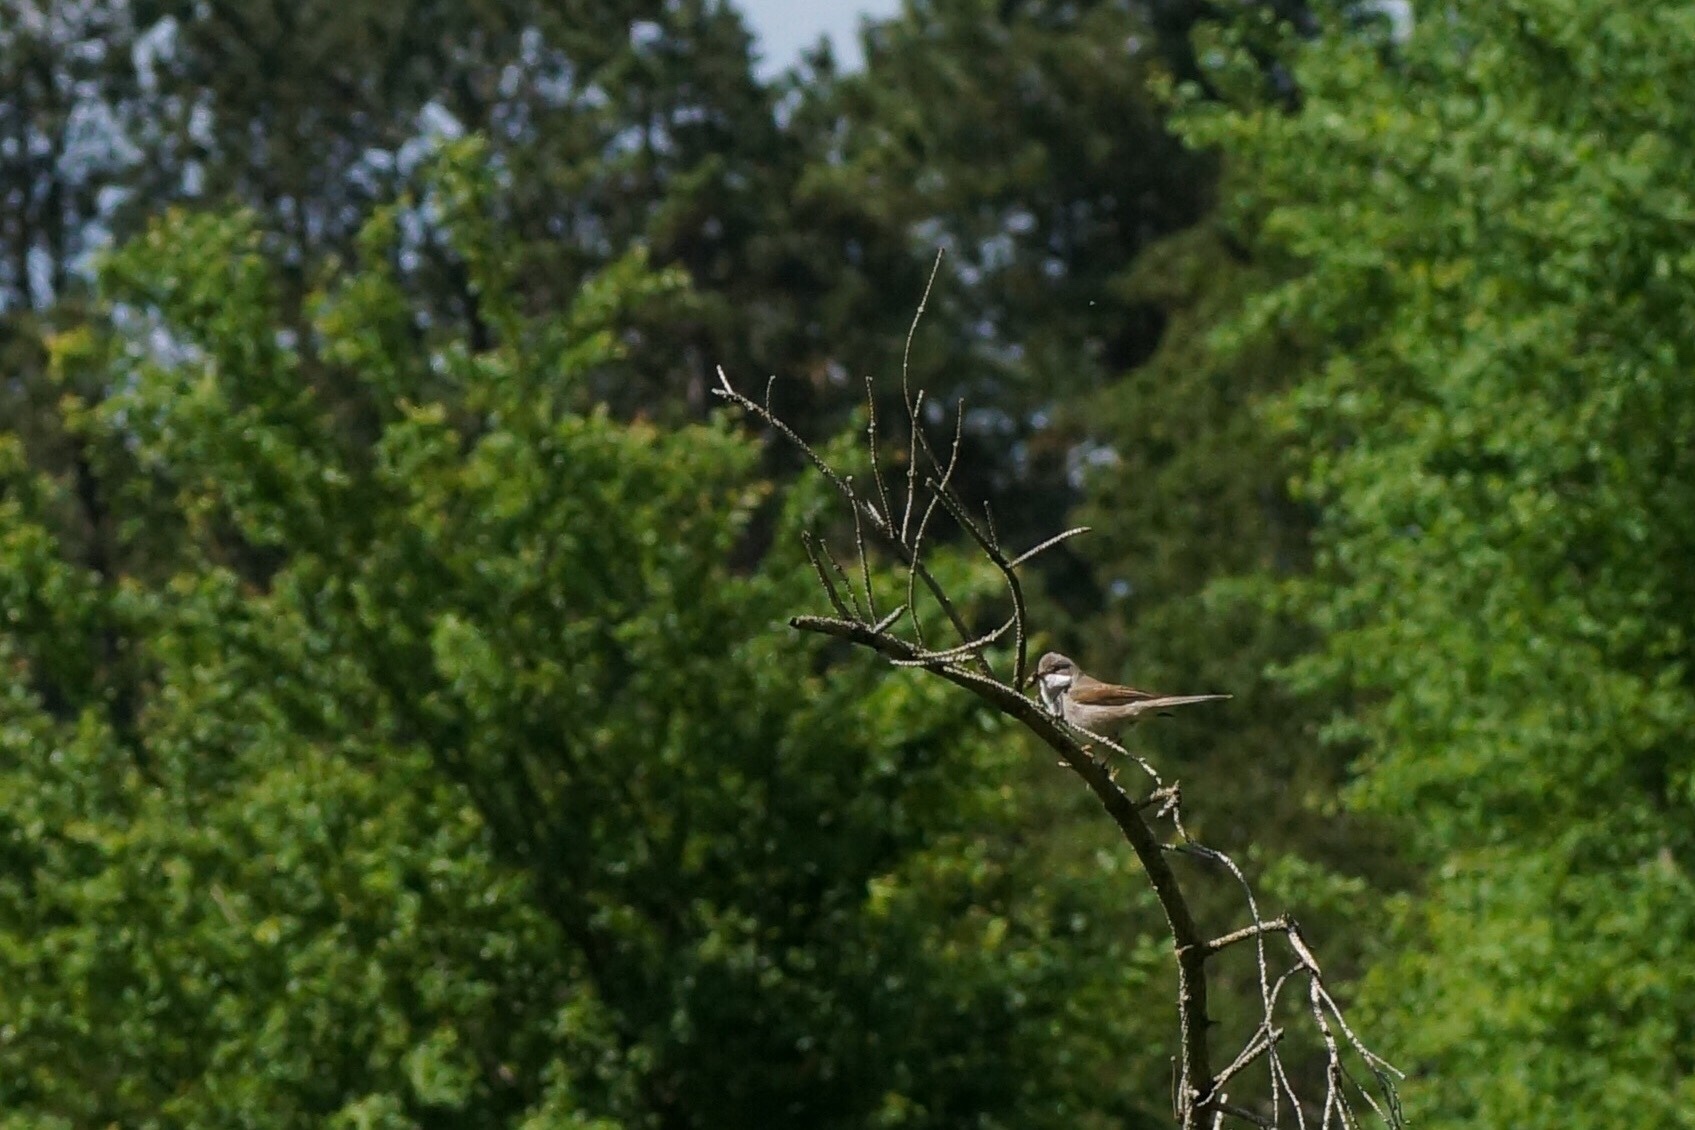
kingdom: Animalia
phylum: Chordata
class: Aves
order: Passeriformes
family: Sylviidae
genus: Sylvia
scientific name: Sylvia communis
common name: Common whitethroat
